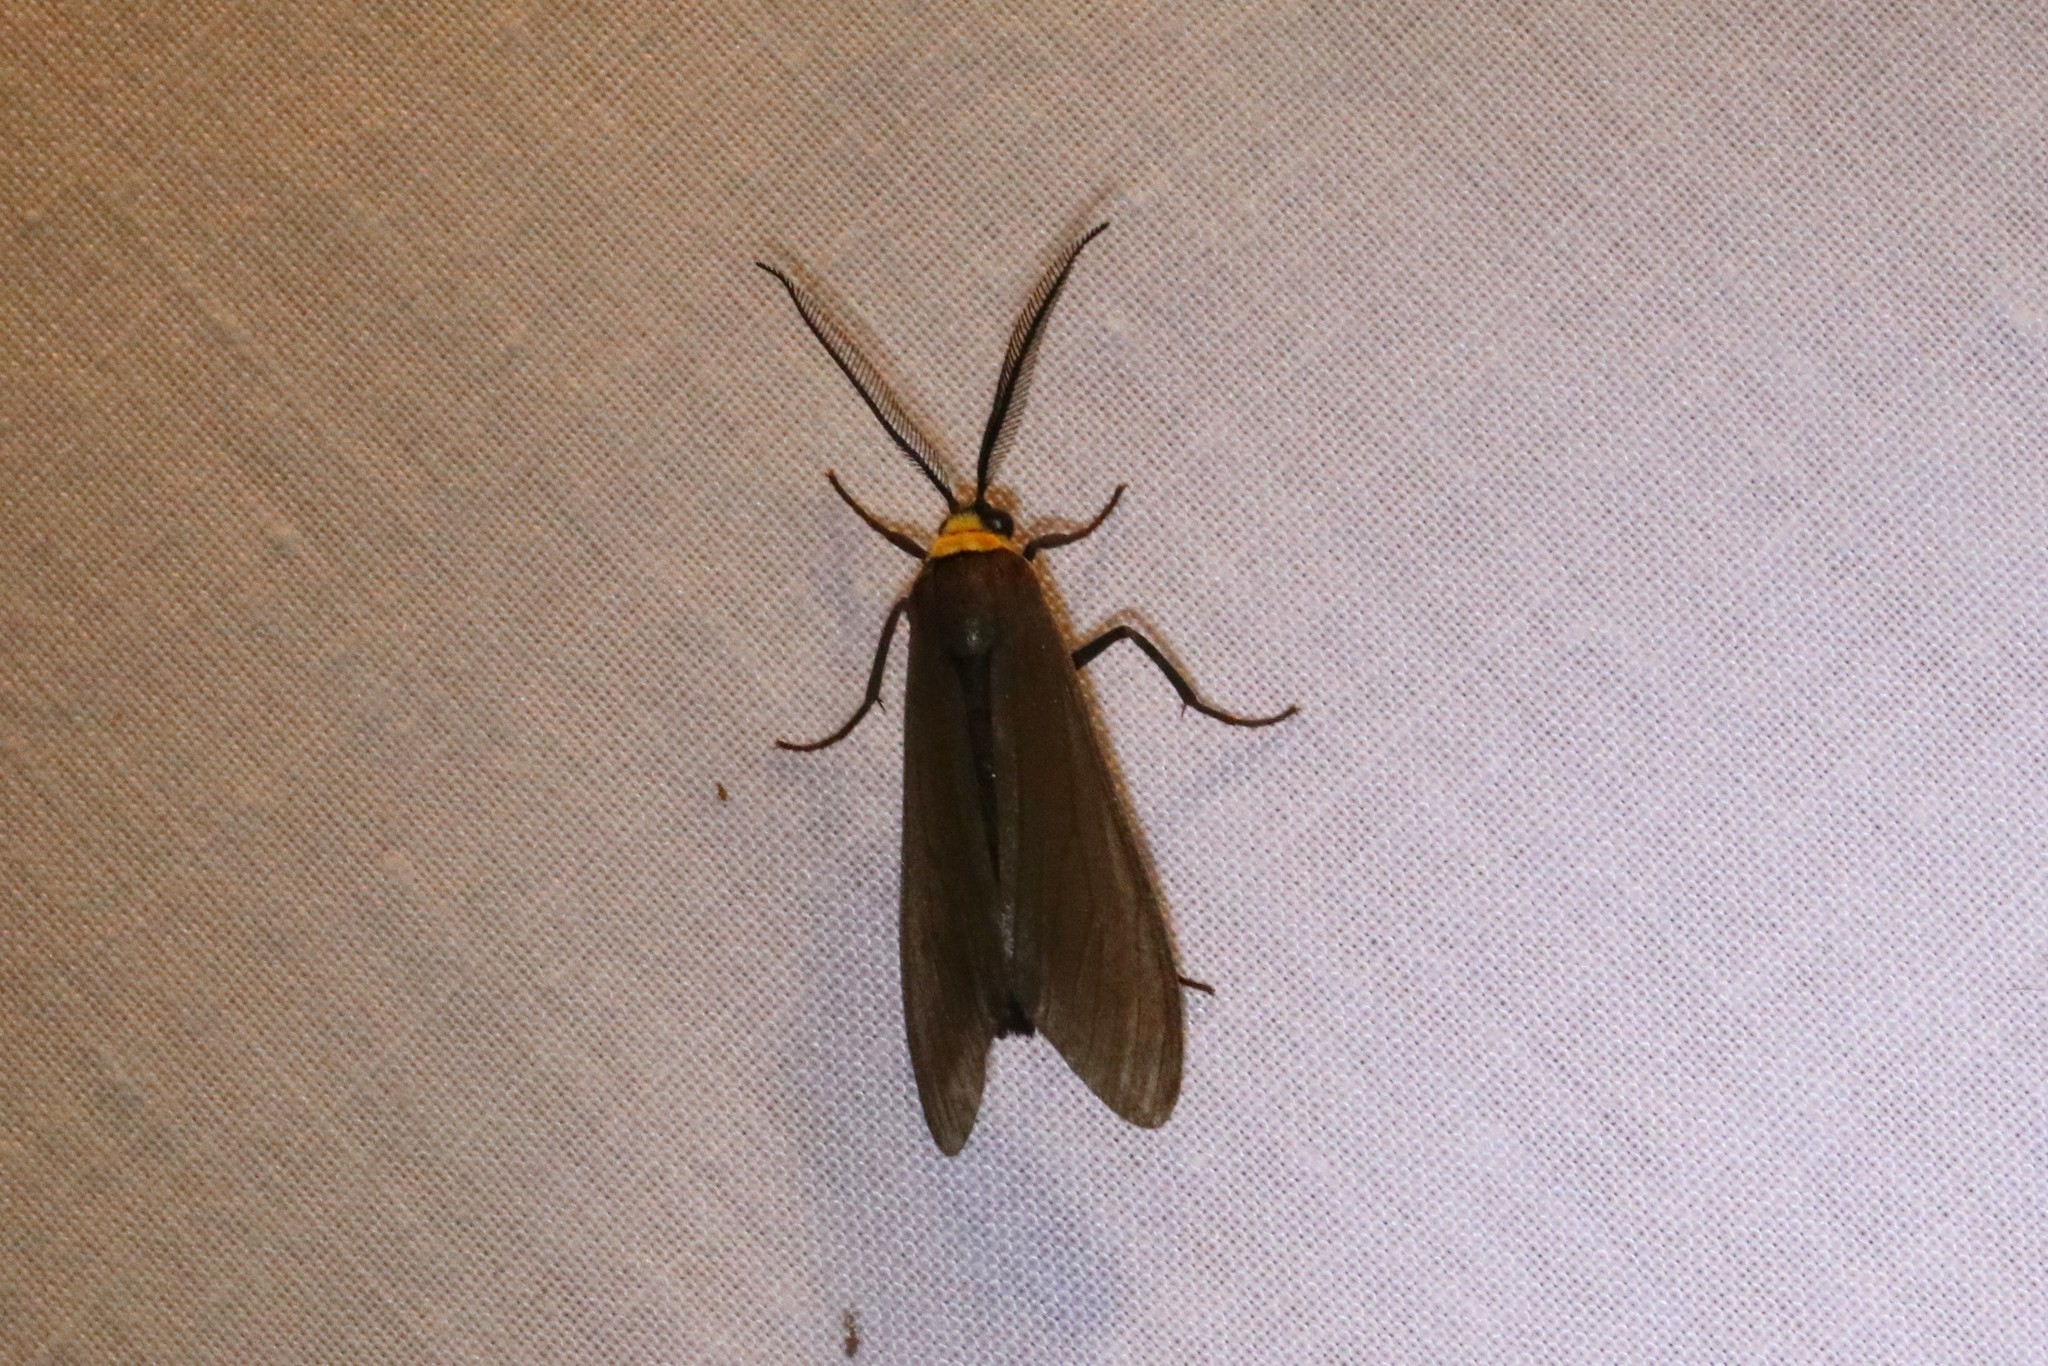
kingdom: Animalia
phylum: Arthropoda
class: Insecta
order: Lepidoptera
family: Erebidae
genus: Cisseps
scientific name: Cisseps fulvicollis
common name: Yellow-collared scape moth
